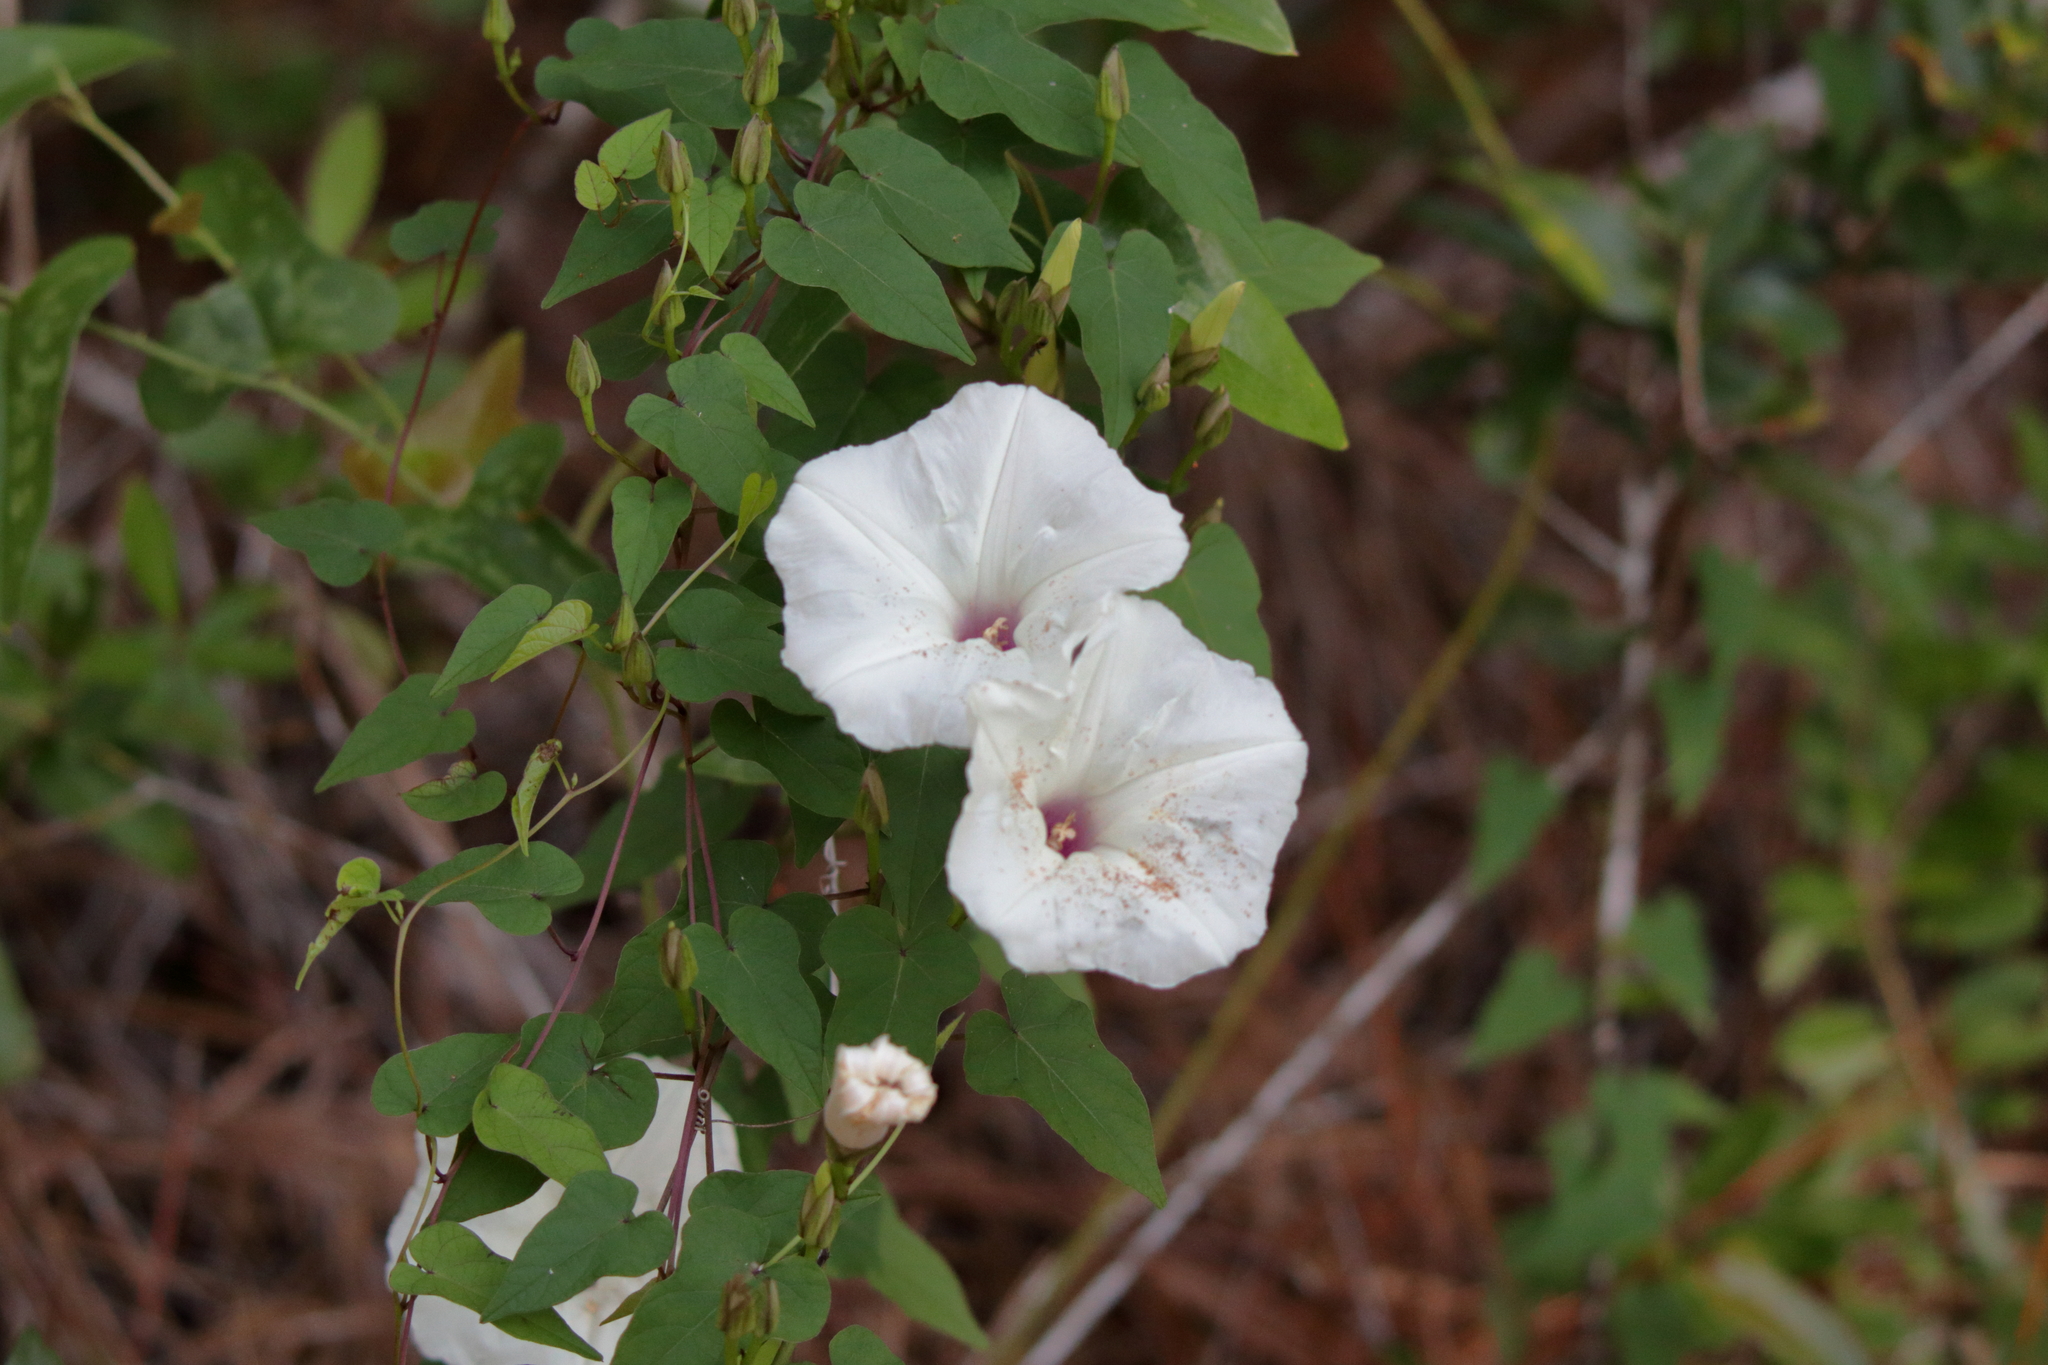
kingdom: Plantae
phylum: Tracheophyta
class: Magnoliopsida
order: Solanales
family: Convolvulaceae
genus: Ipomoea
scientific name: Ipomoea pandurata
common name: Man-of-the-earth
